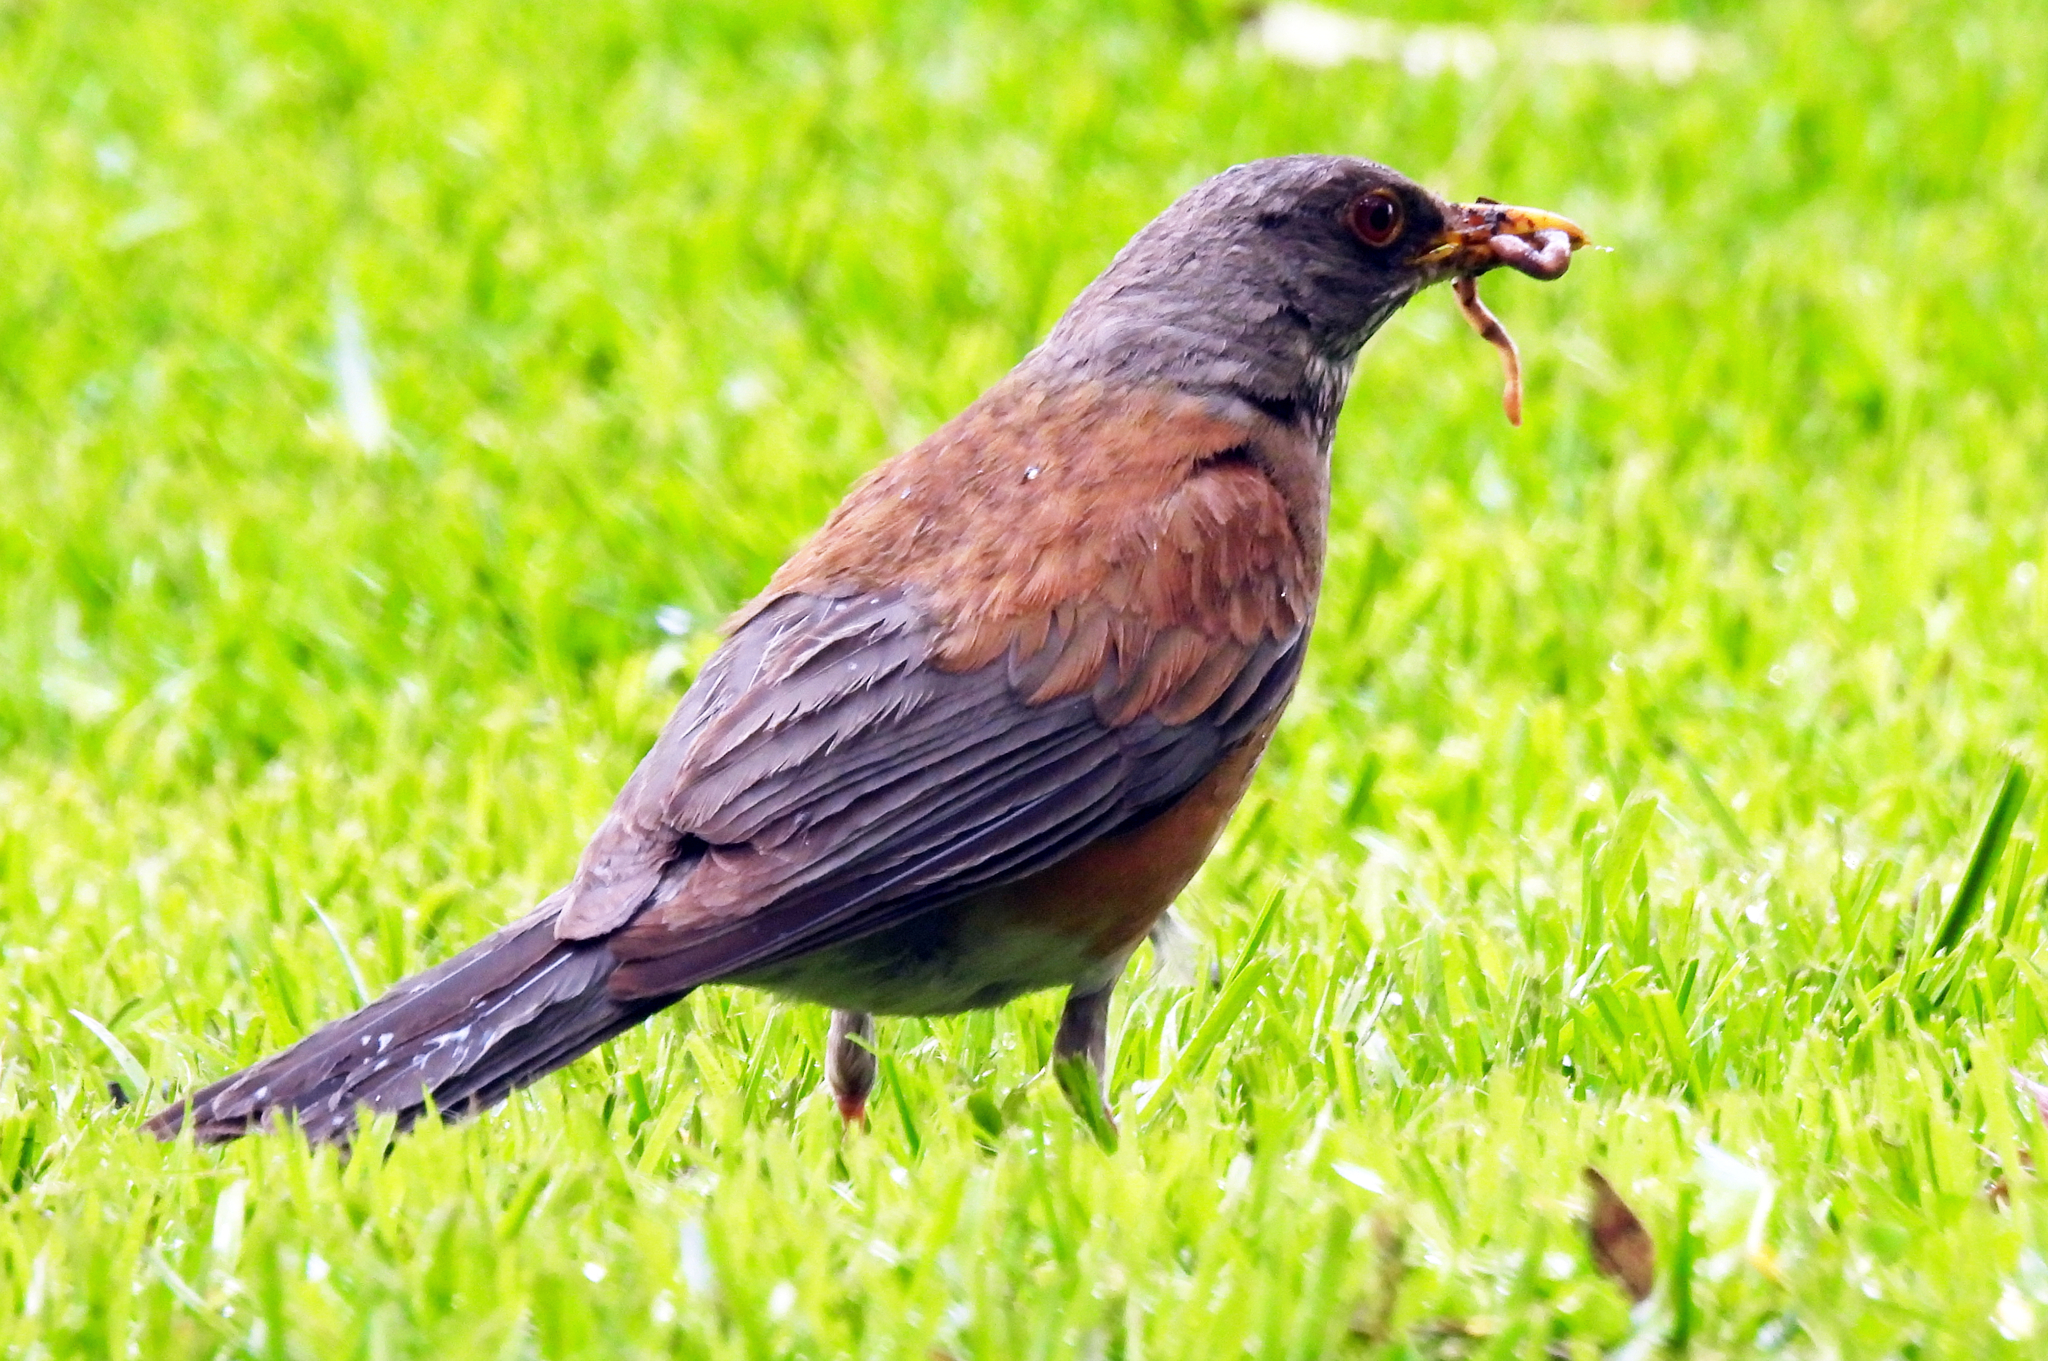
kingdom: Animalia
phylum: Chordata
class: Aves
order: Passeriformes
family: Turdidae
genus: Turdus
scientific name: Turdus rufopalliatus
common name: Rufous-backed robin
